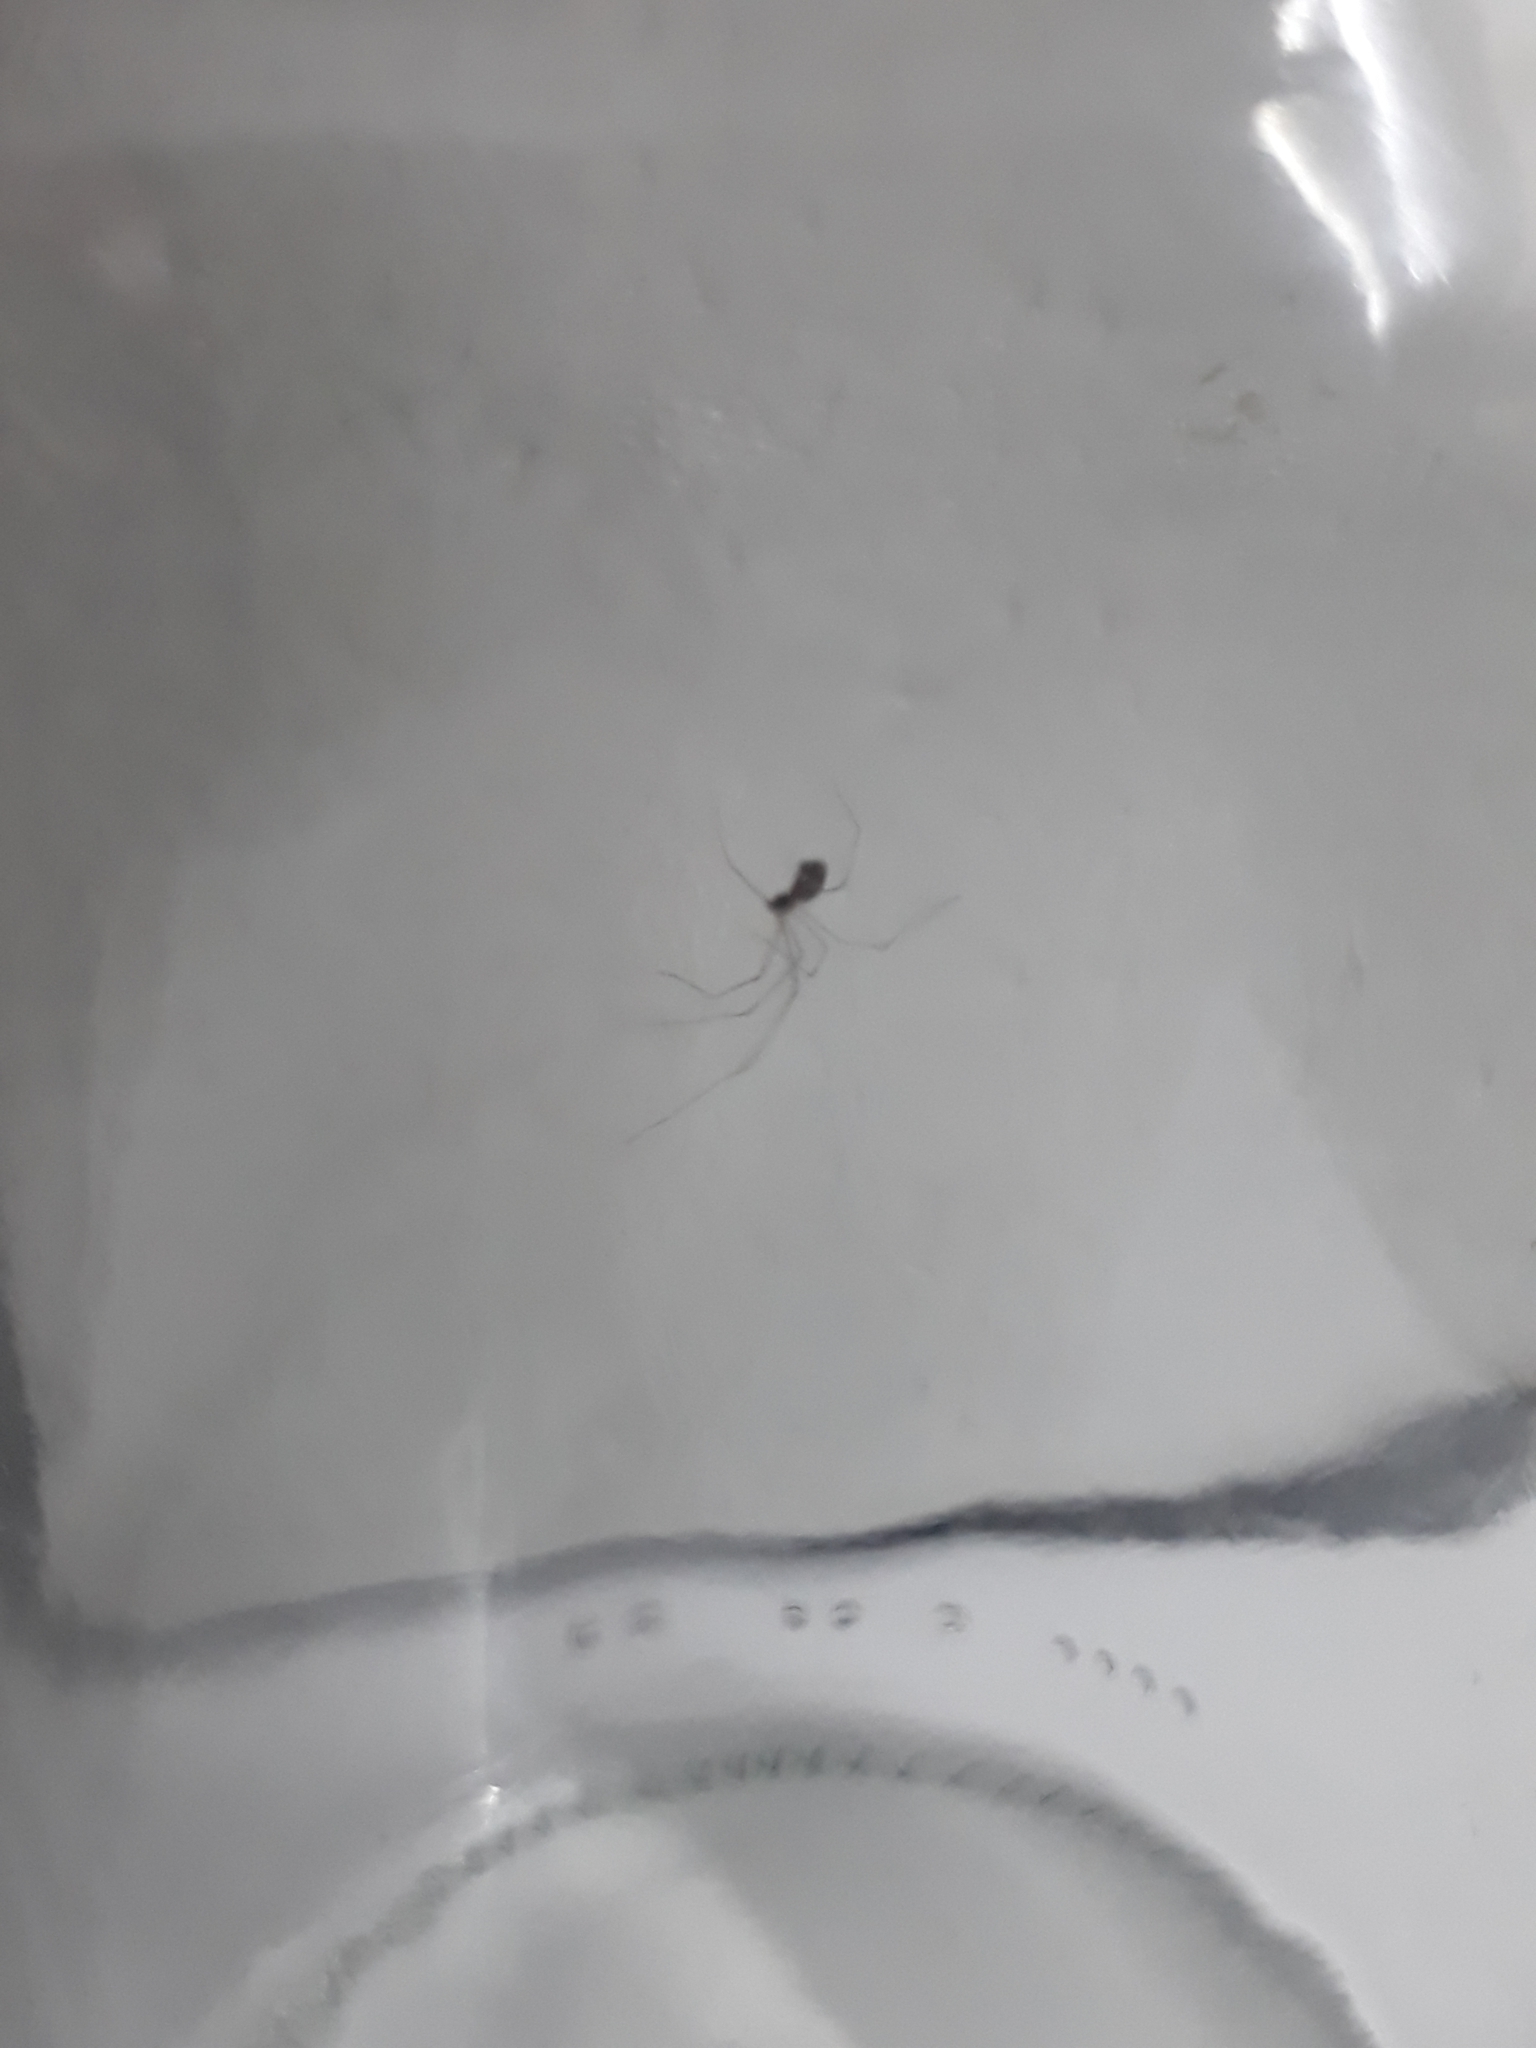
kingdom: Animalia
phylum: Arthropoda
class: Arachnida
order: Araneae
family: Pholcidae
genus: Holocnemus
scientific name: Holocnemus pluchei
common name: Marbled cellar spider
